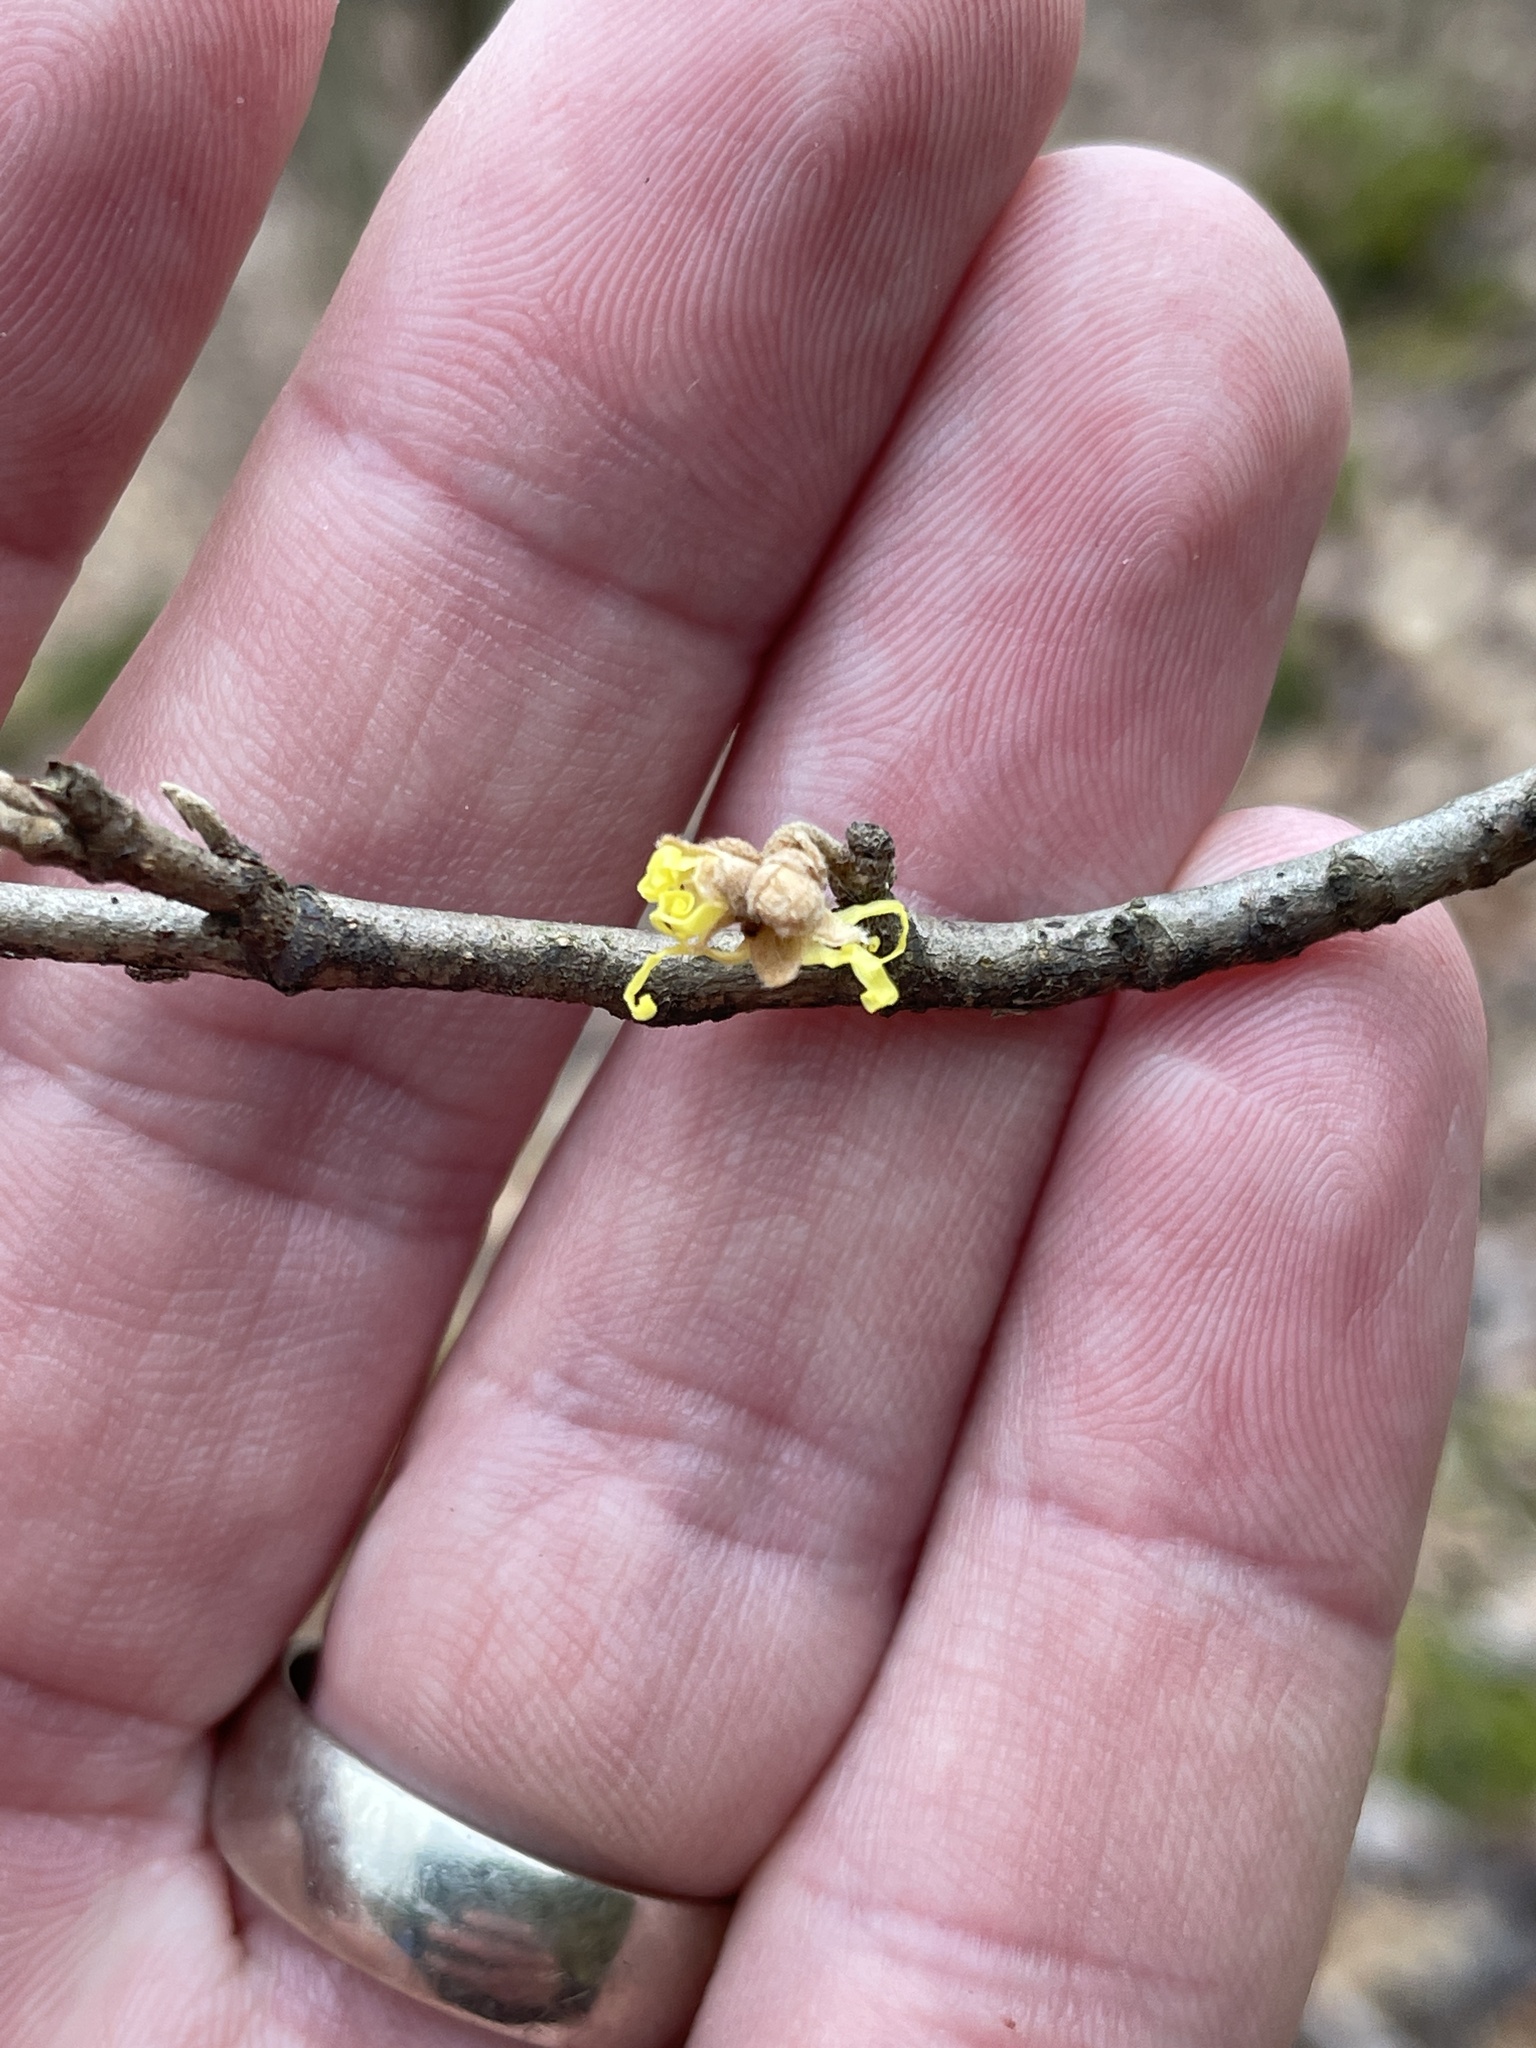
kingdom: Plantae
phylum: Tracheophyta
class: Magnoliopsida
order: Saxifragales
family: Hamamelidaceae
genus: Hamamelis
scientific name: Hamamelis virginiana
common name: Witch-hazel
